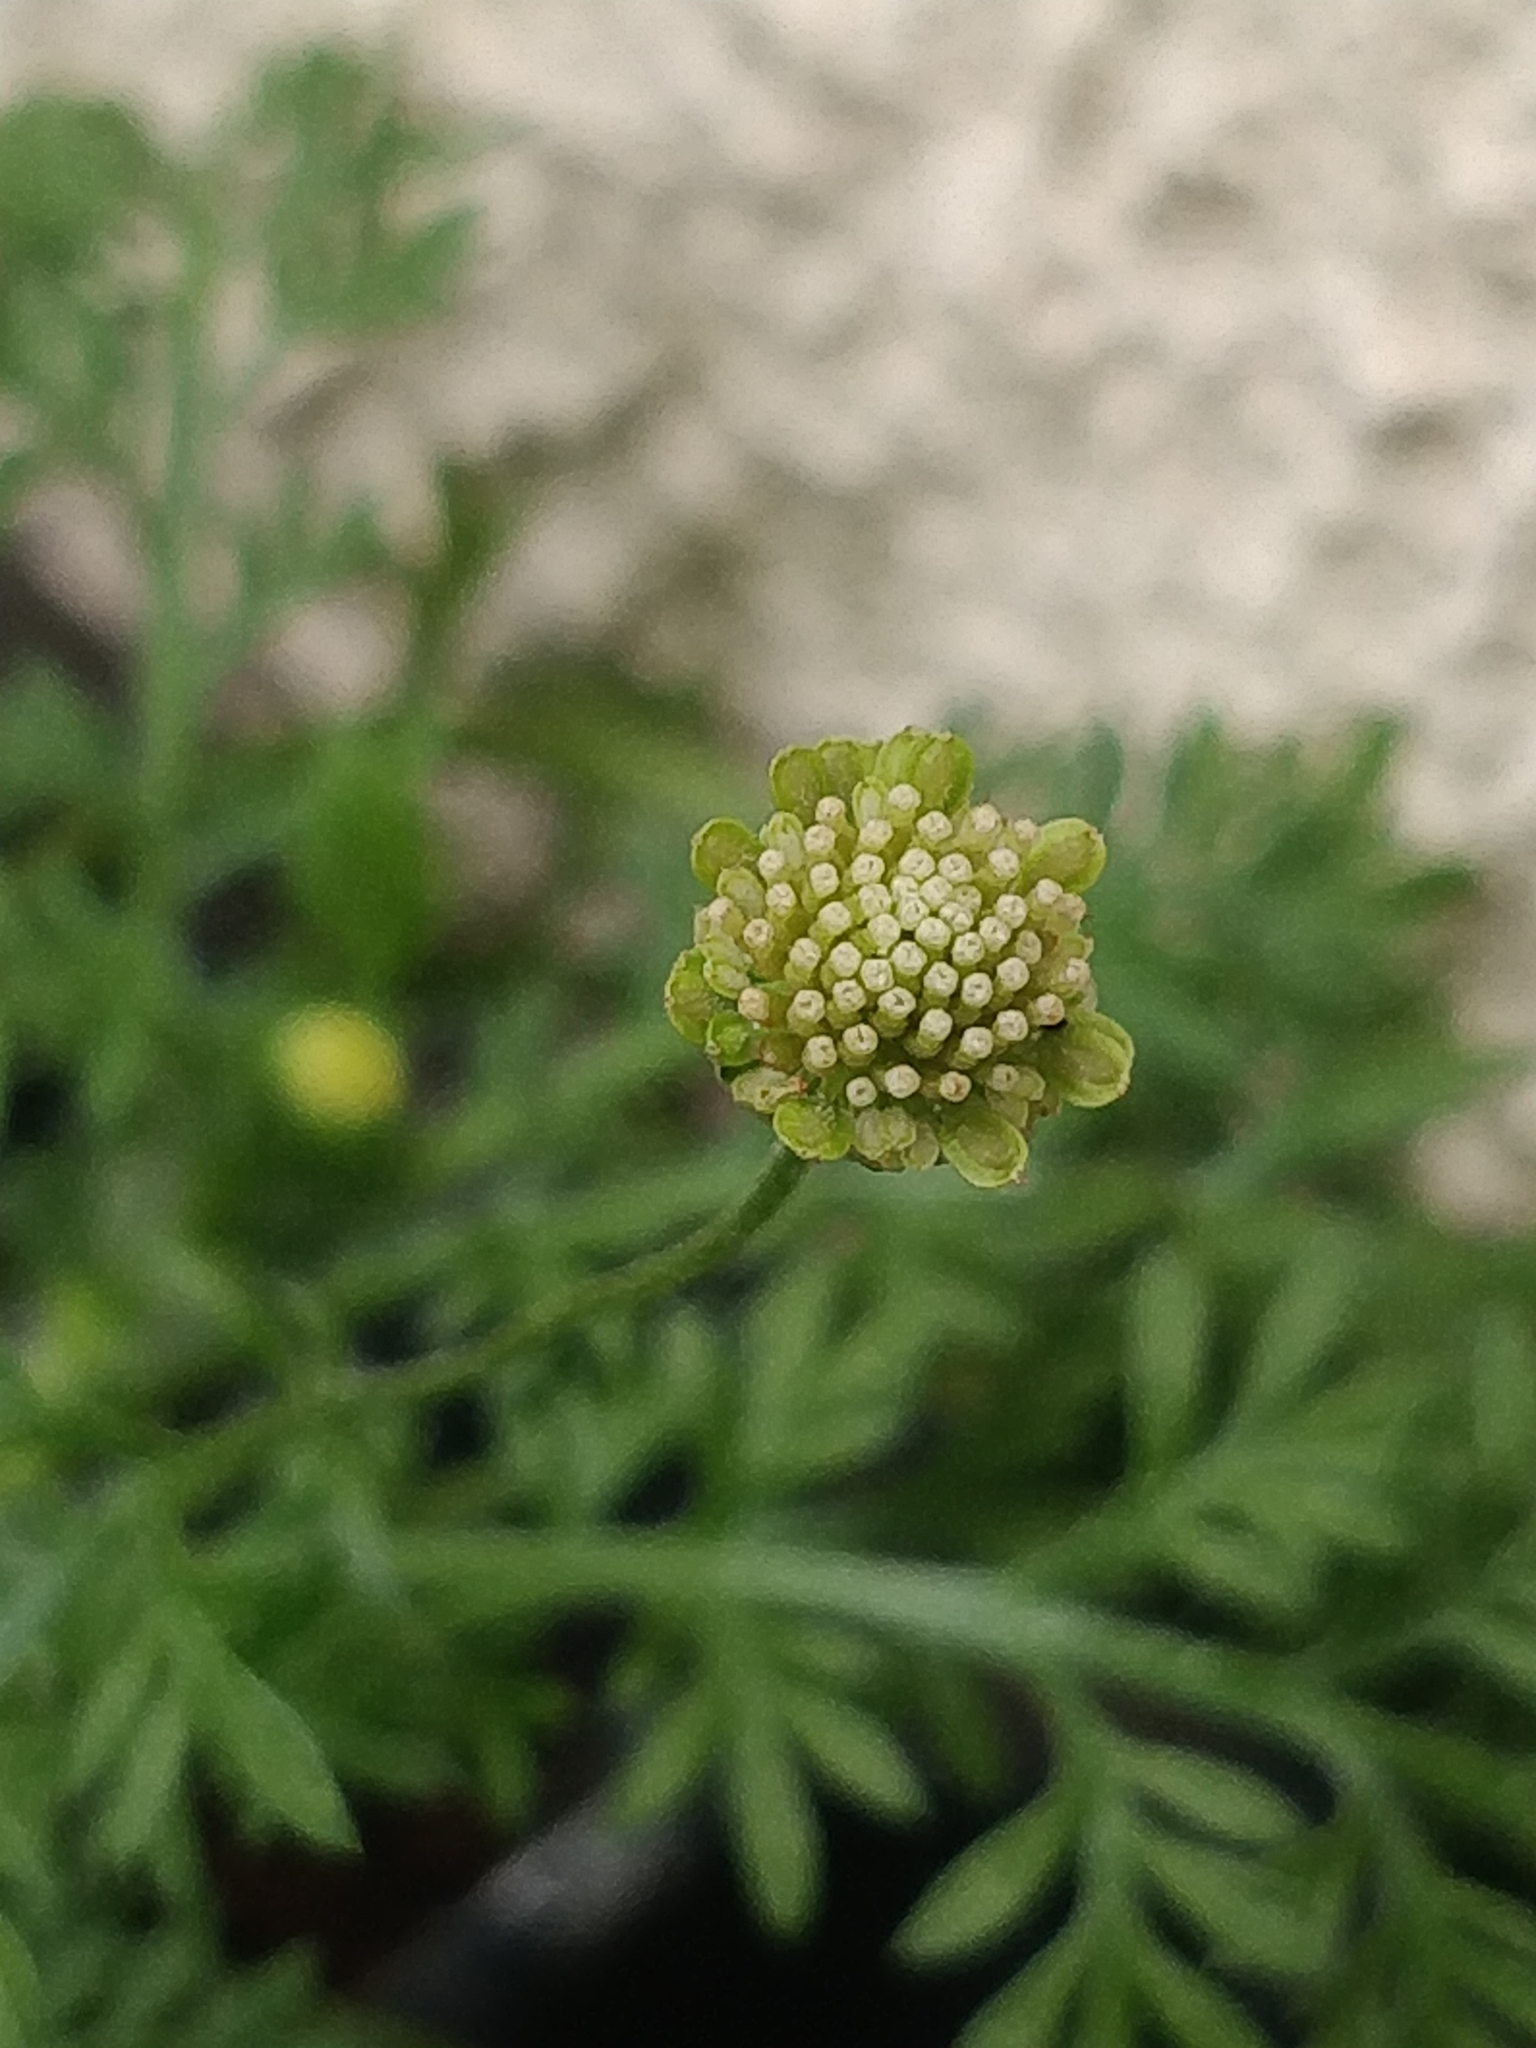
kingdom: Plantae
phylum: Tracheophyta
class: Magnoliopsida
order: Asterales
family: Asteraceae
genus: Cotula
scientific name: Cotula australis
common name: Australian waterbuttons
